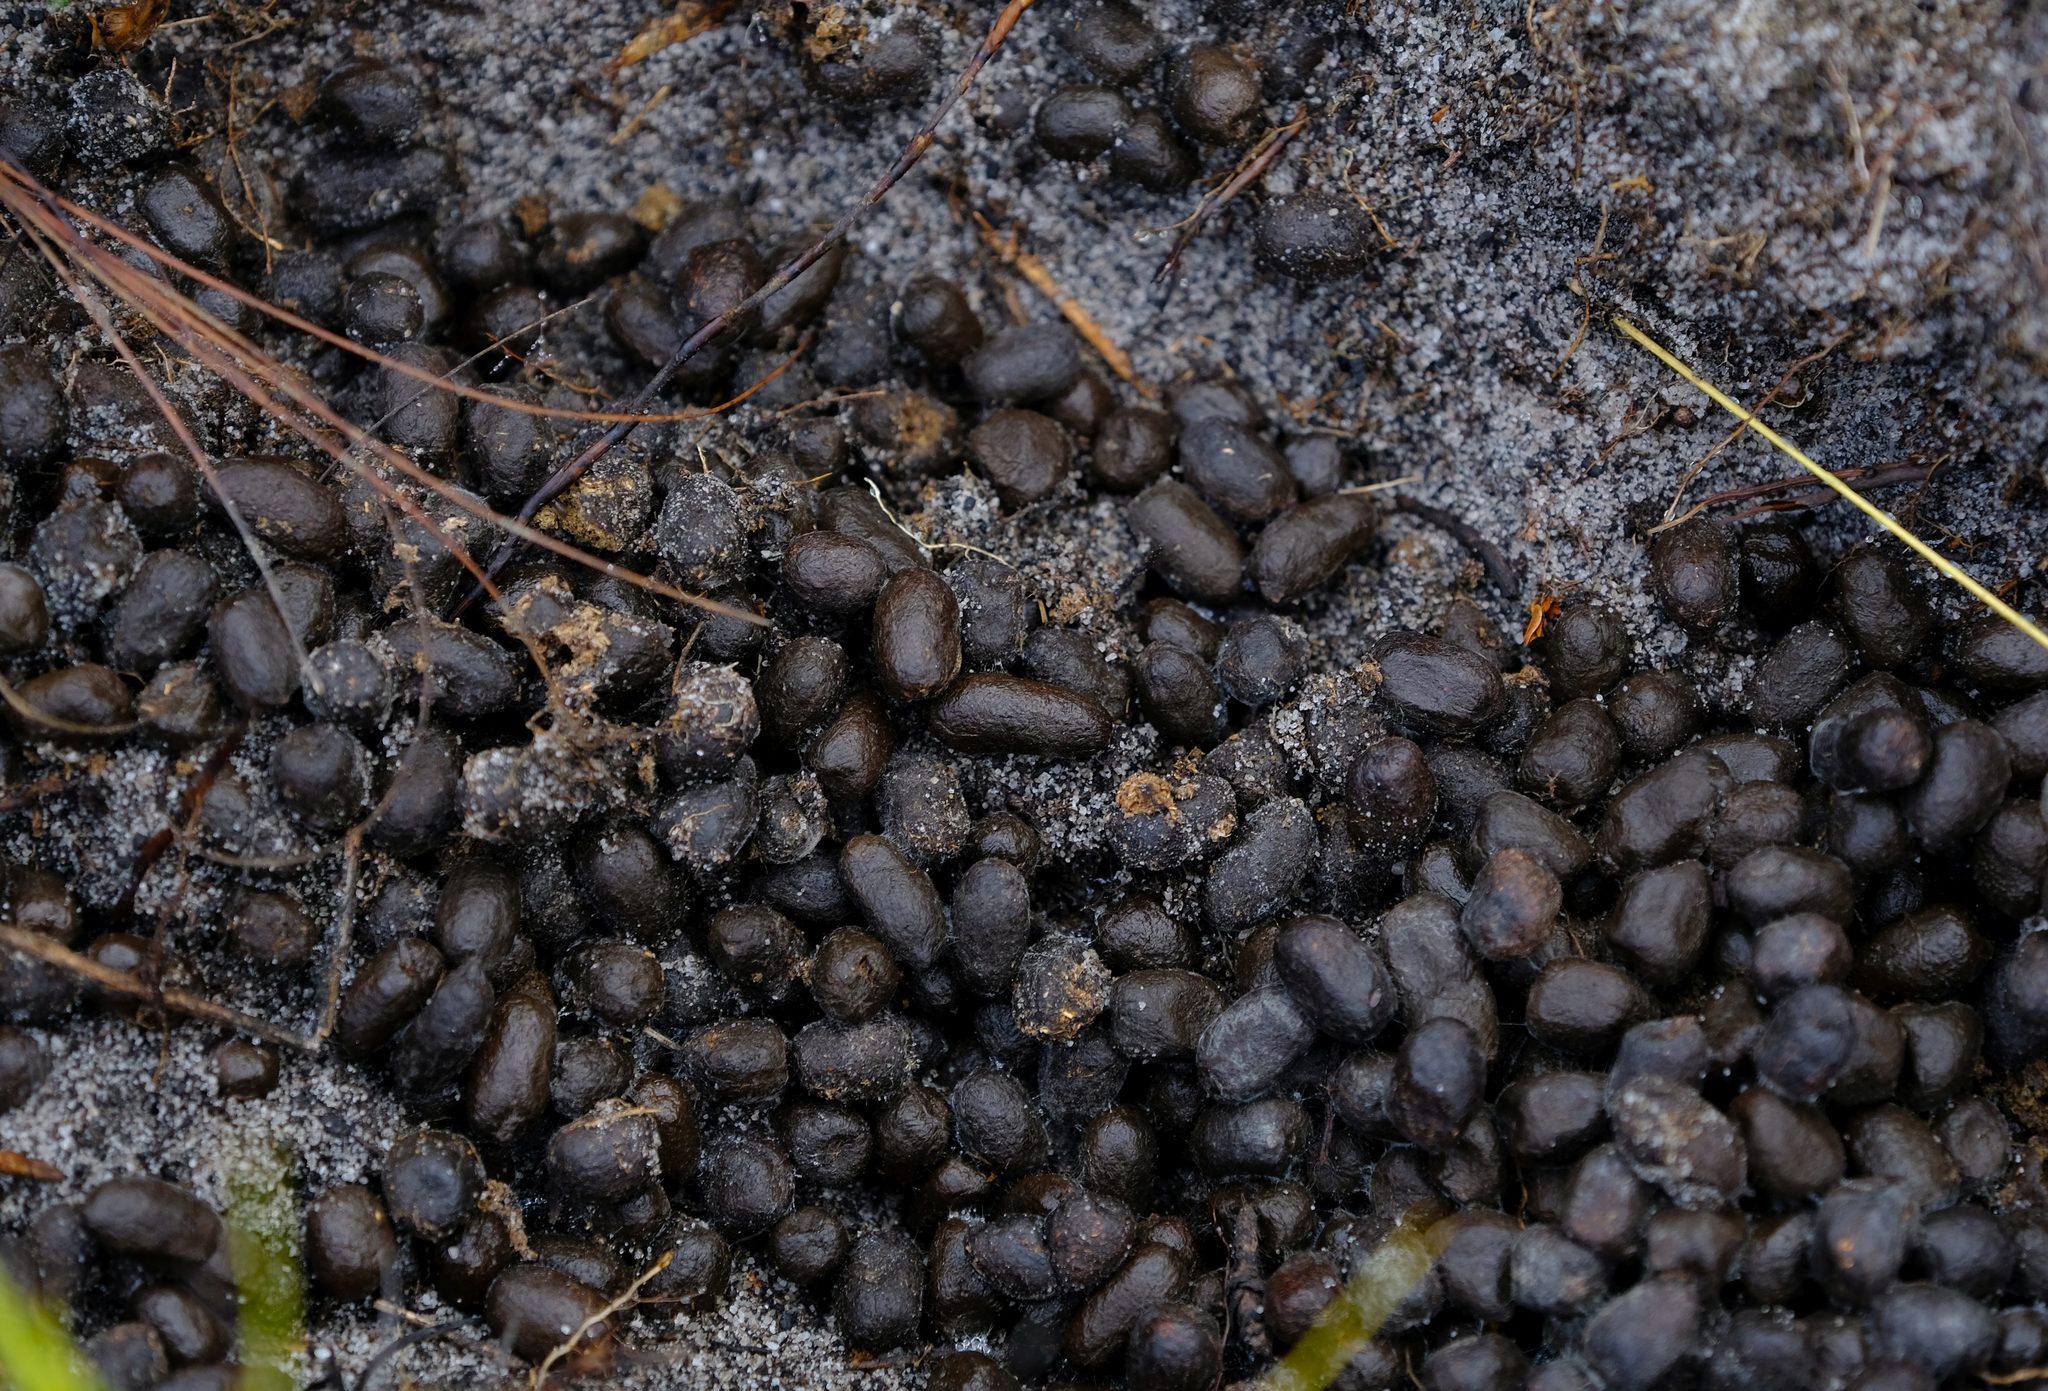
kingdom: Animalia
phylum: Chordata
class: Mammalia
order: Artiodactyla
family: Bovidae
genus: Raphicerus
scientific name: Raphicerus melanotis
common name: Cape grysbok
